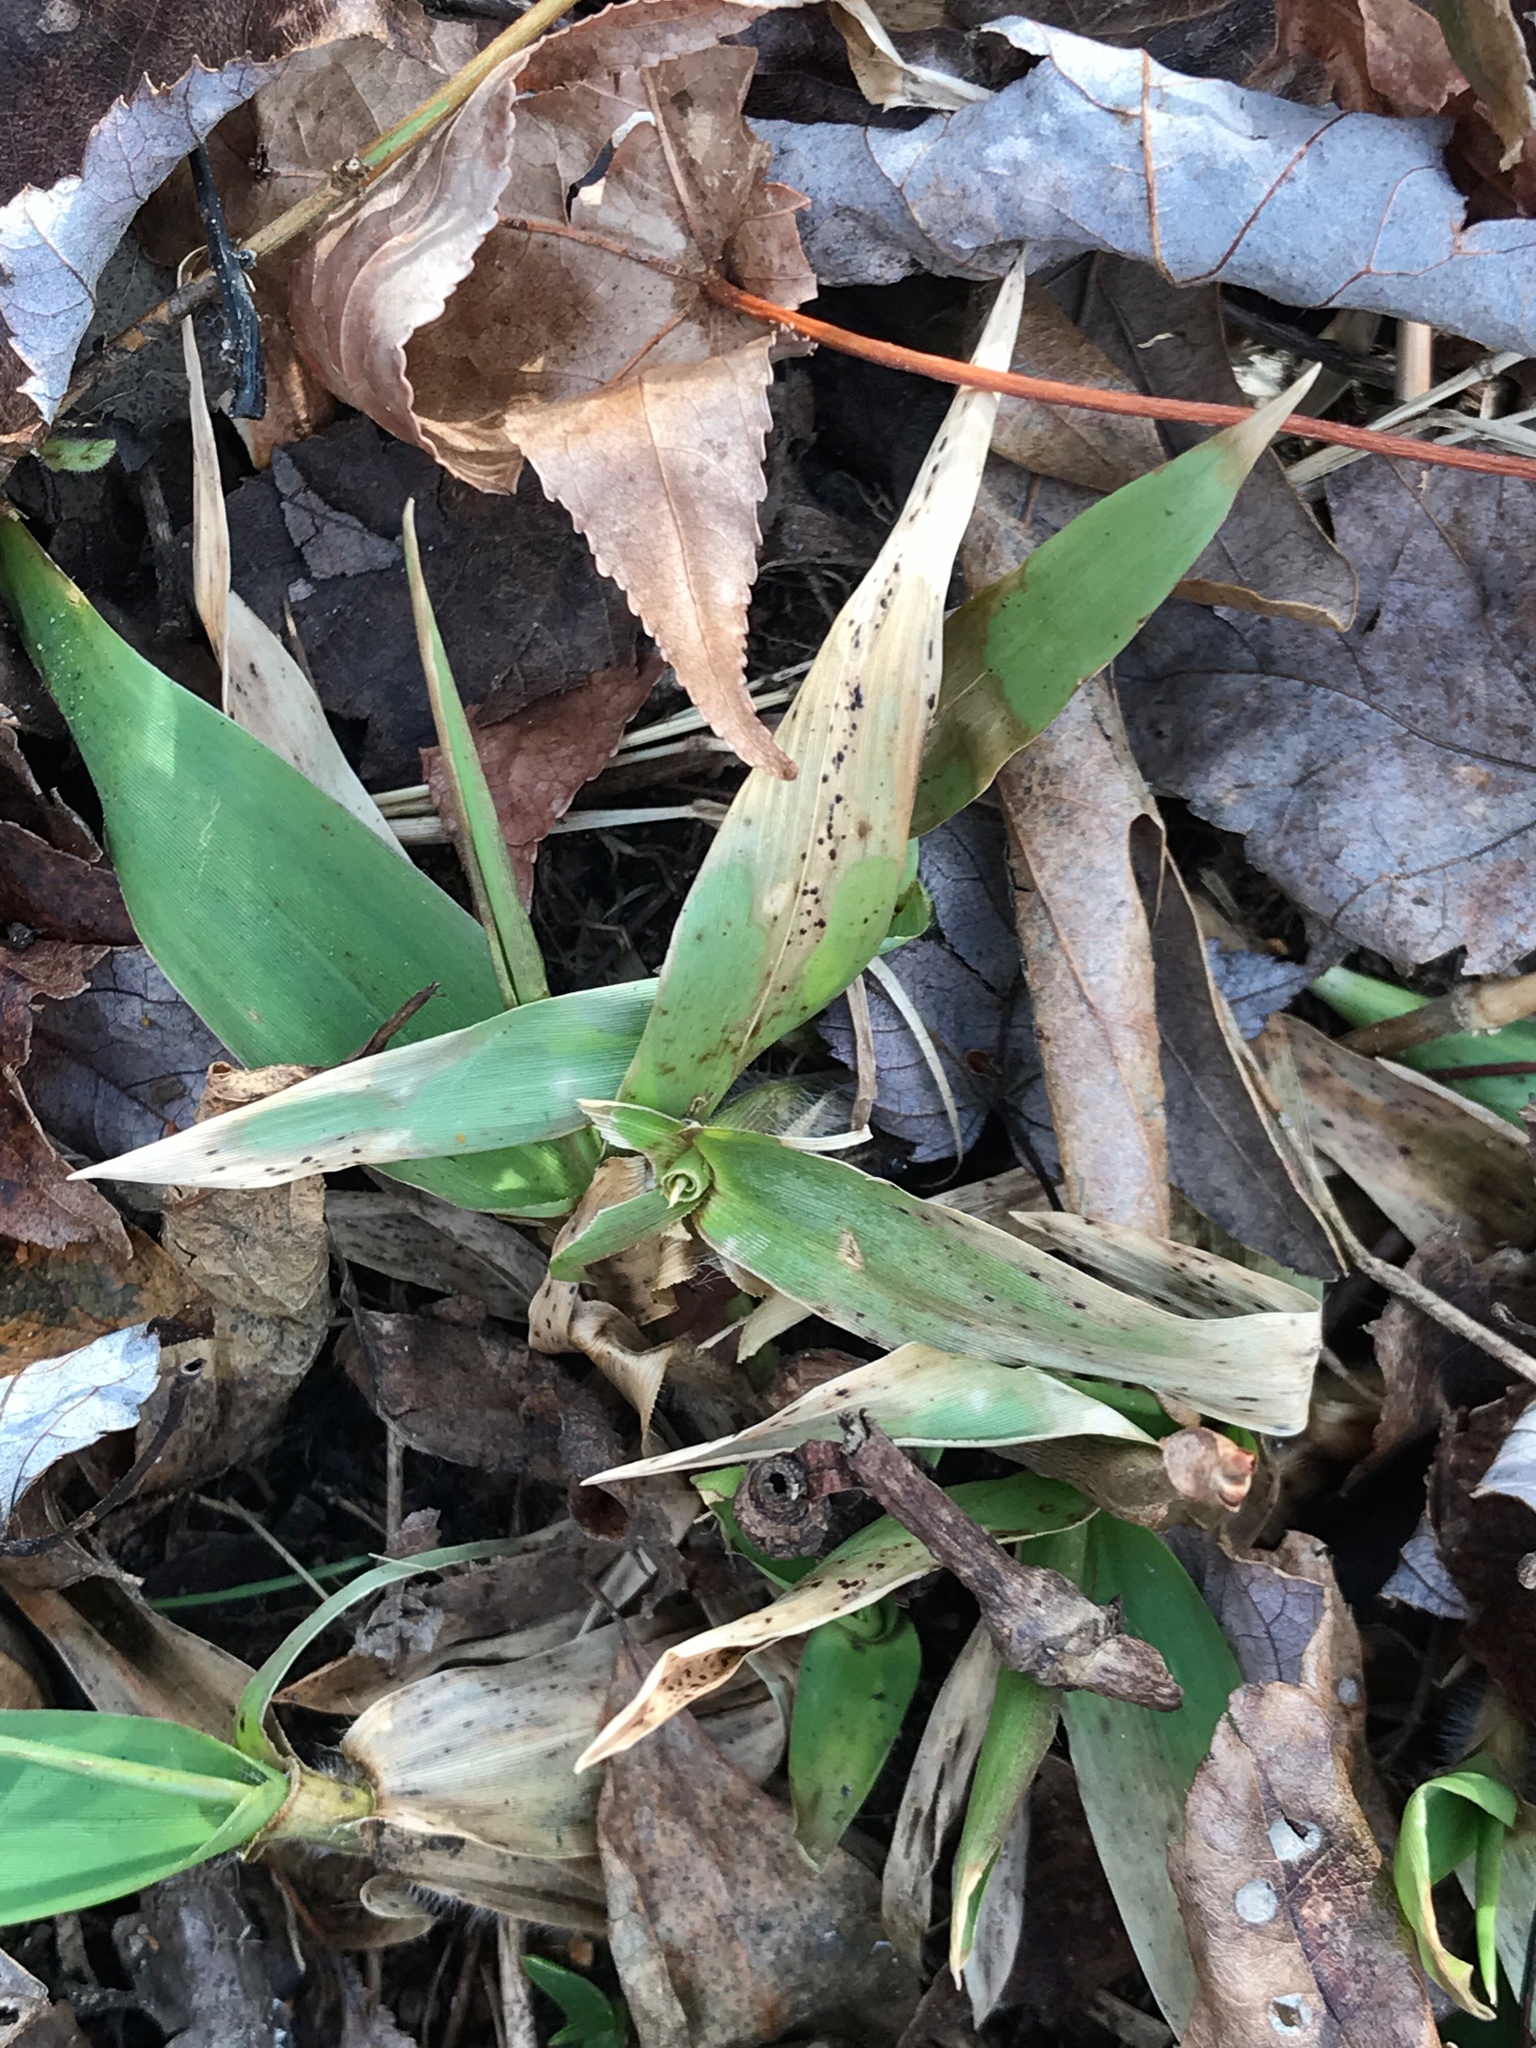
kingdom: Plantae
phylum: Tracheophyta
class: Liliopsida
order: Poales
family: Poaceae
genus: Dichanthelium
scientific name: Dichanthelium clandestinum
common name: Deer-tongue grass
